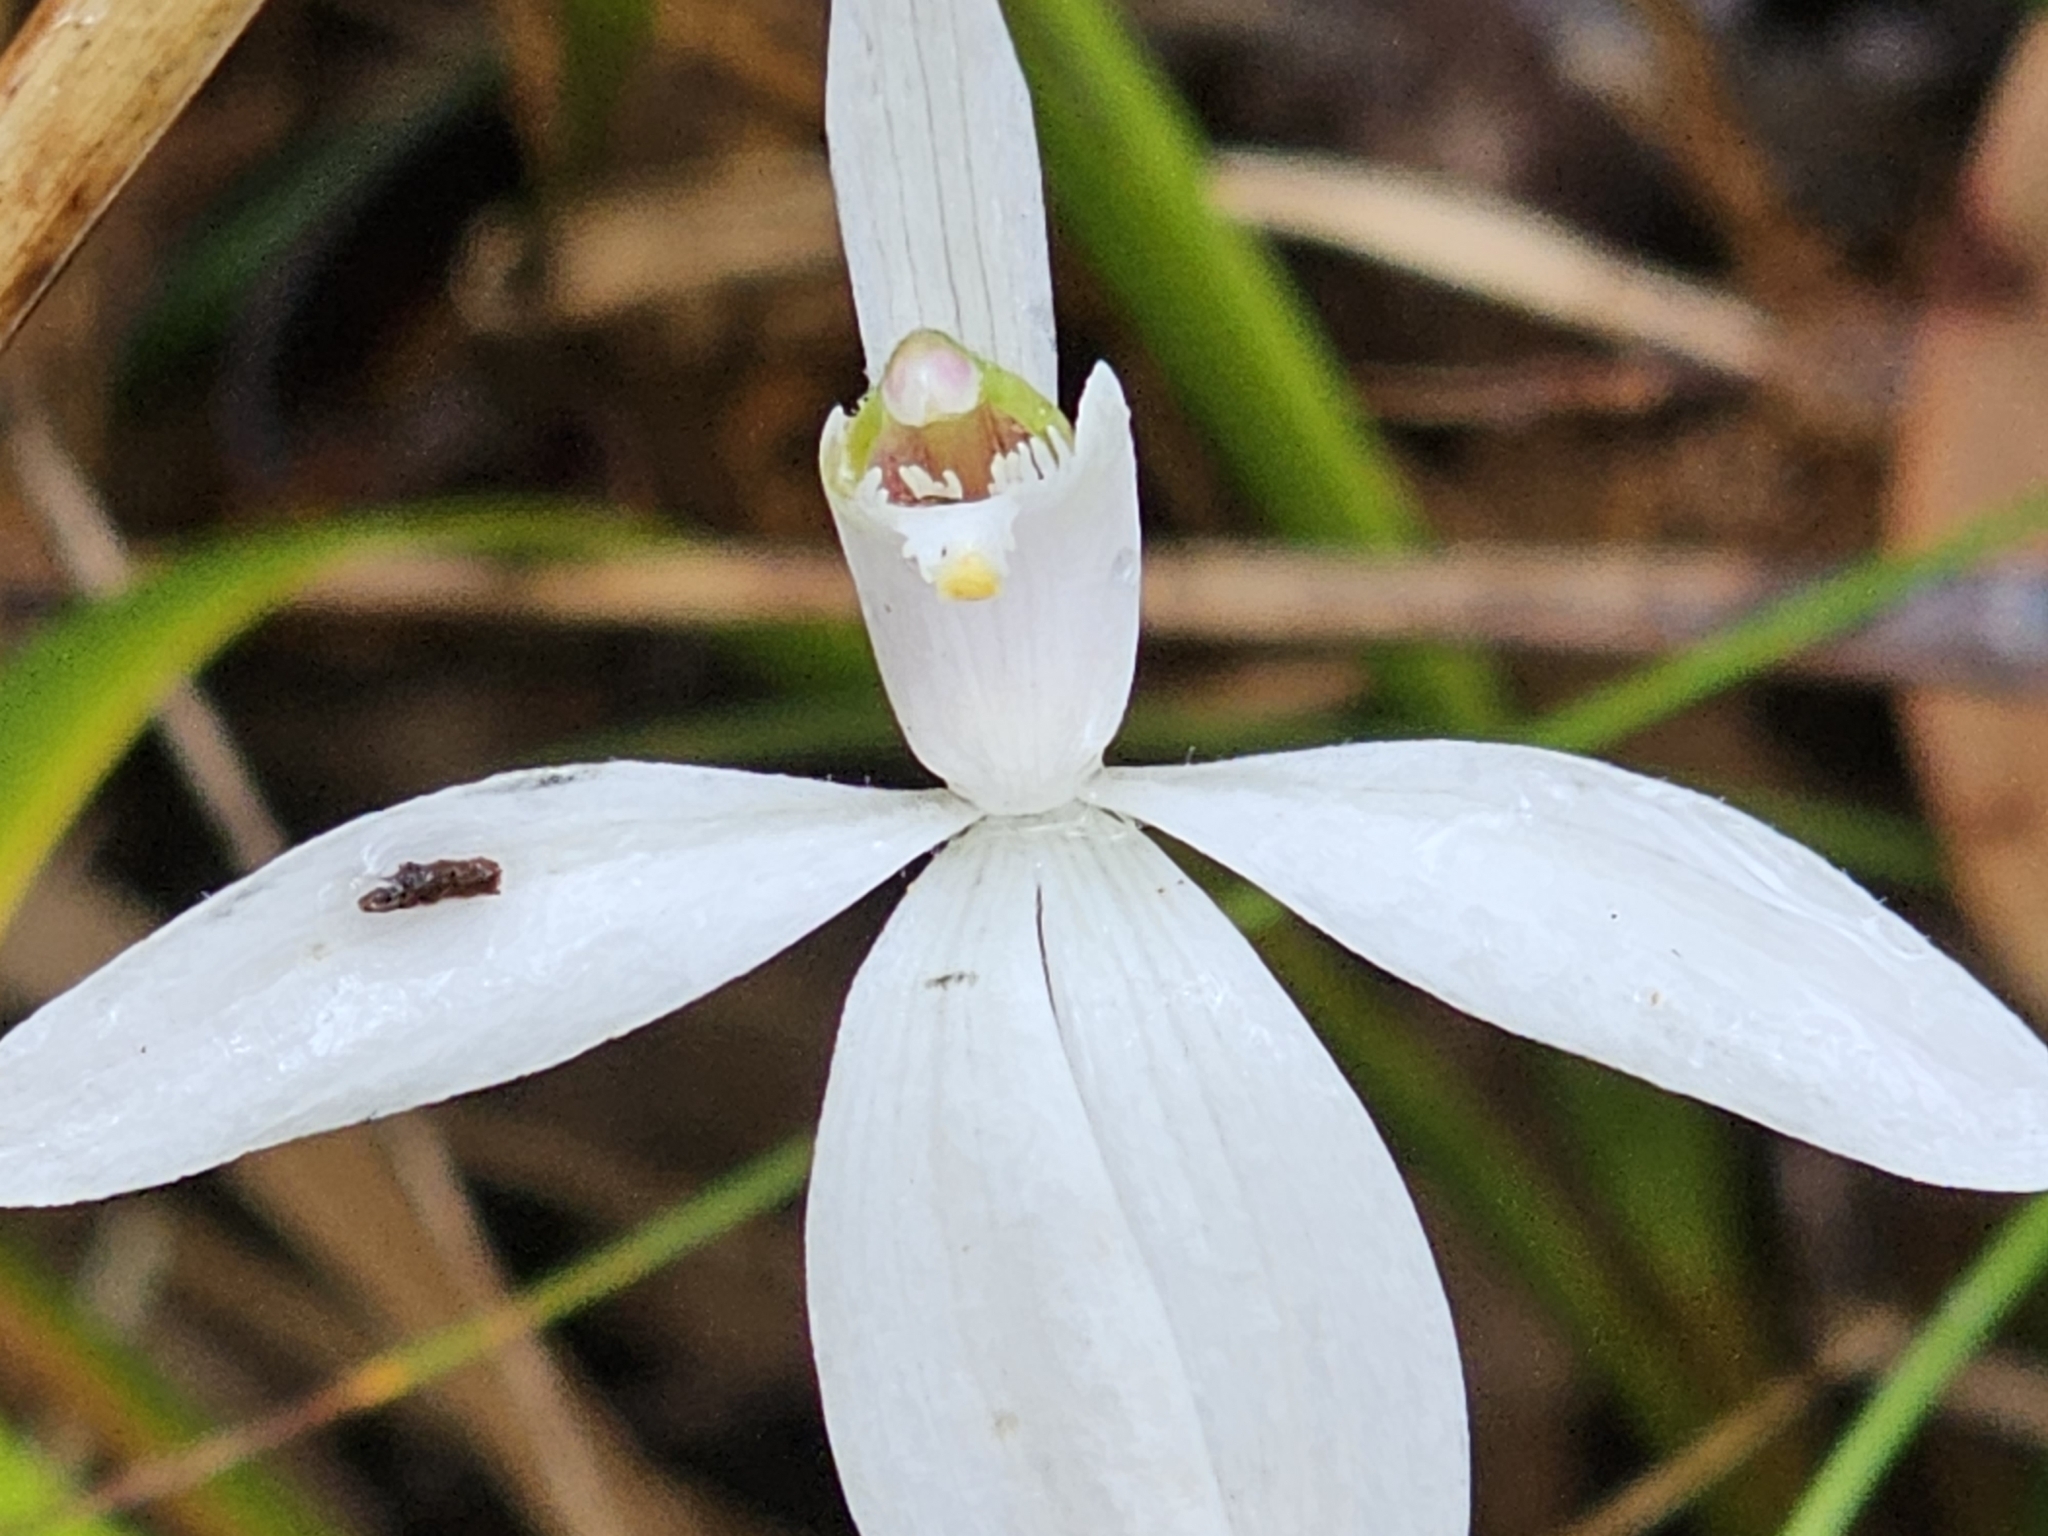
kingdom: Plantae
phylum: Tracheophyta
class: Liliopsida
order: Asparagales
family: Orchidaceae
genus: Caladenia
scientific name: Caladenia catenata
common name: White caladenia
